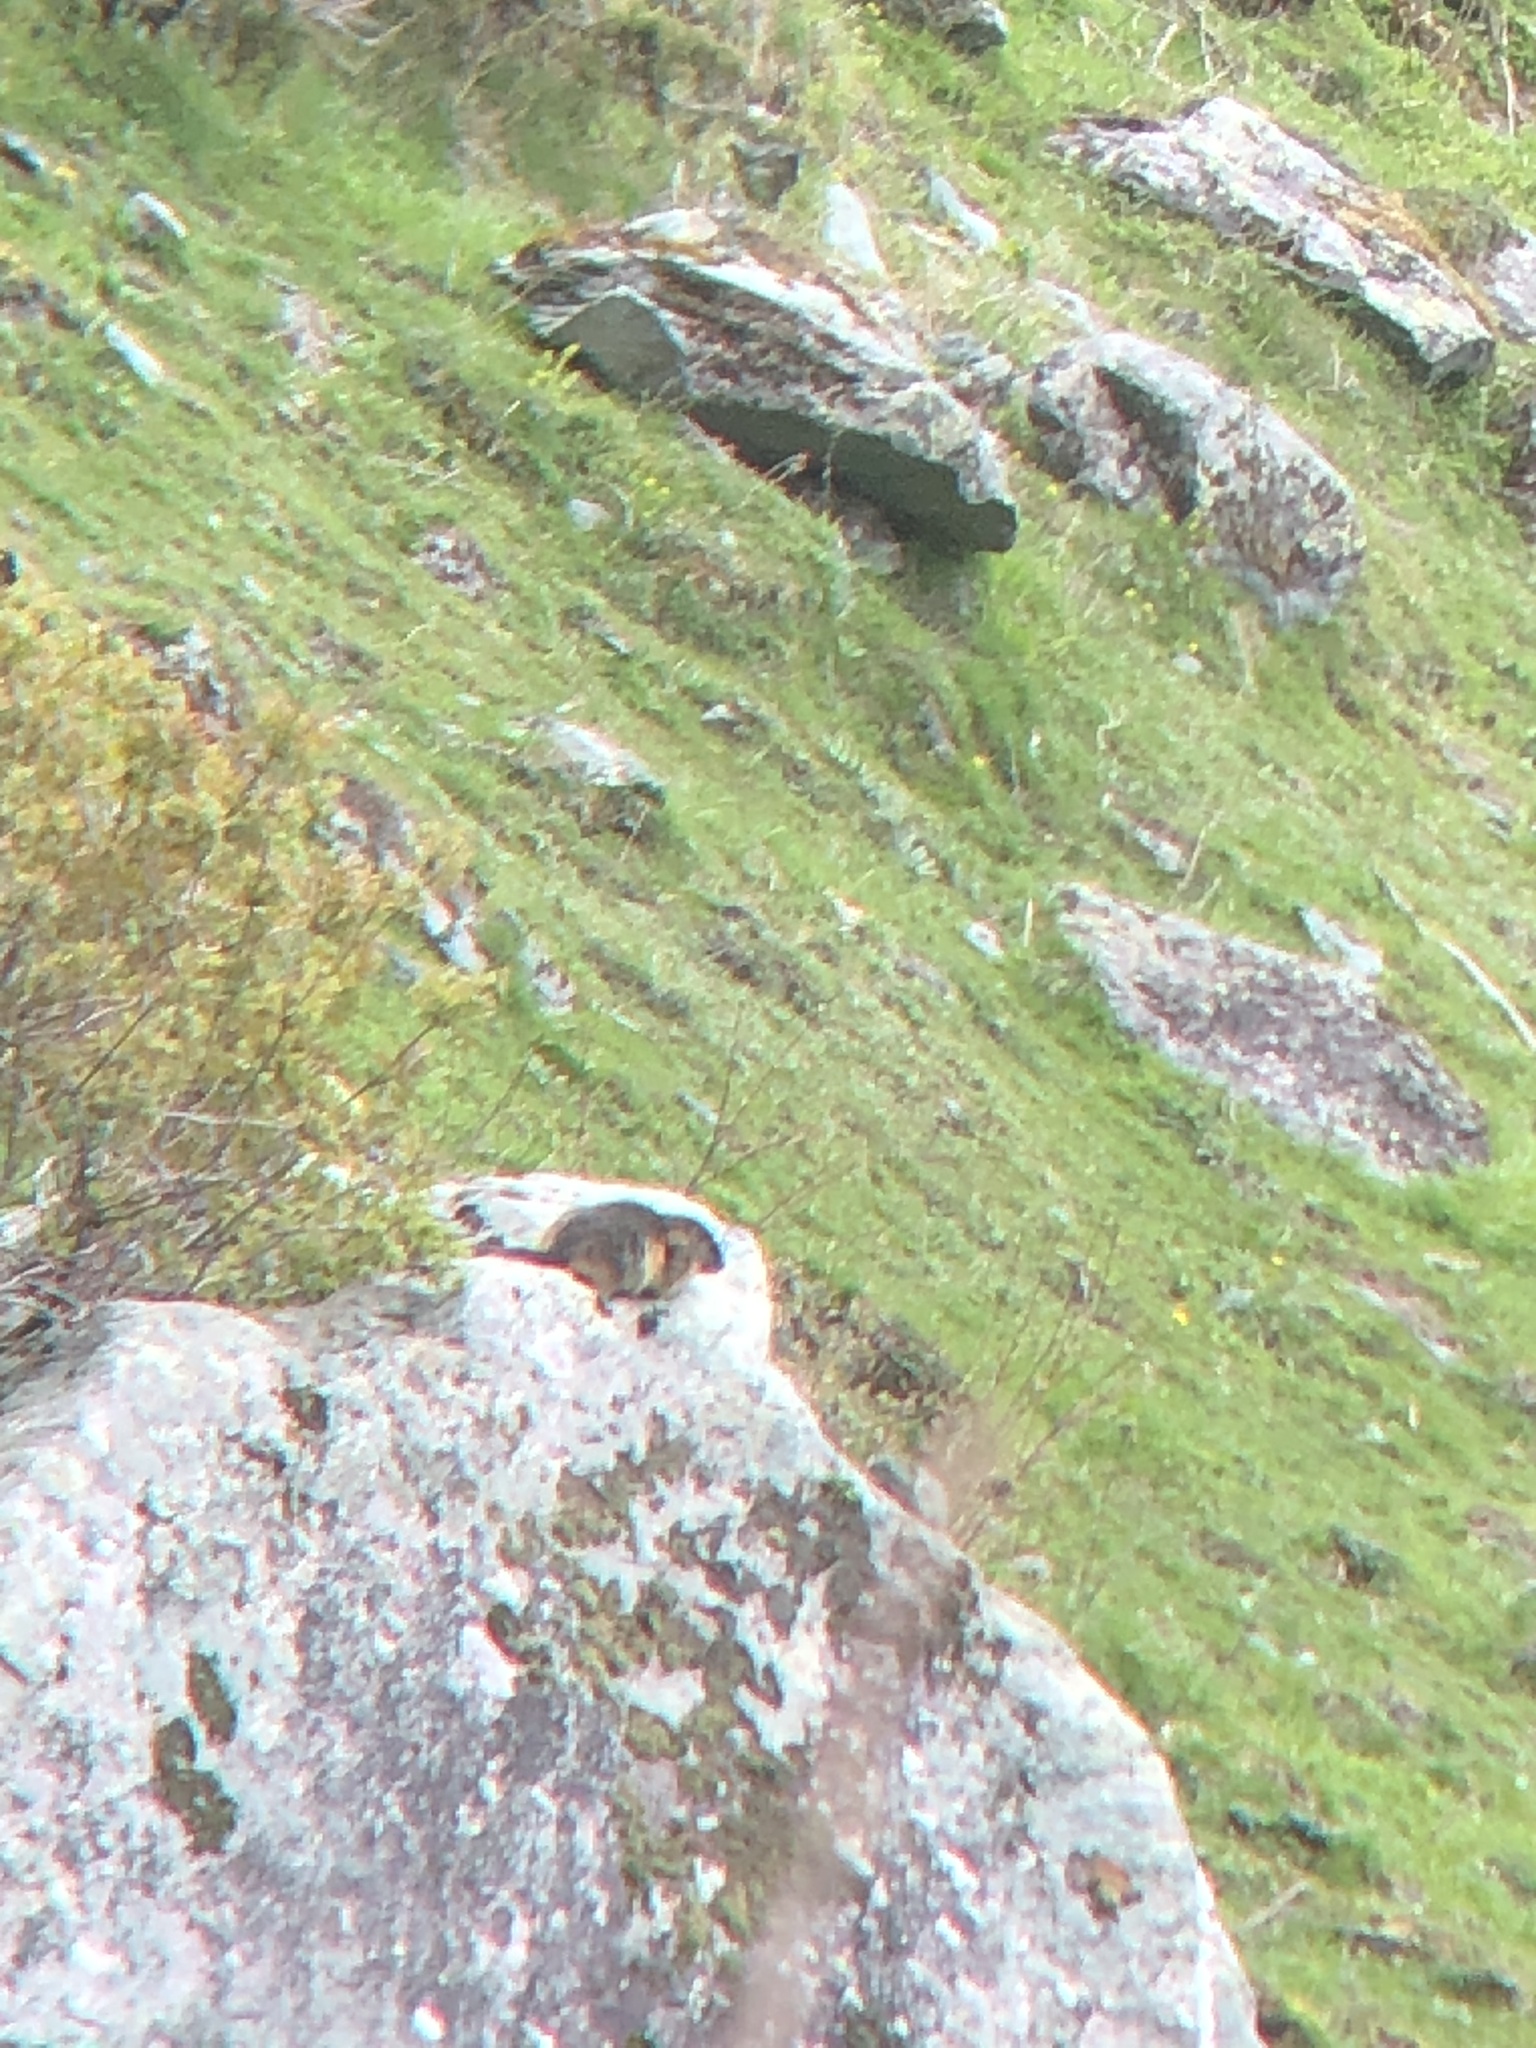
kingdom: Animalia
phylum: Chordata
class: Mammalia
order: Rodentia
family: Sciuridae
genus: Marmota
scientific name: Marmota marmota
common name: Alpine marmot
